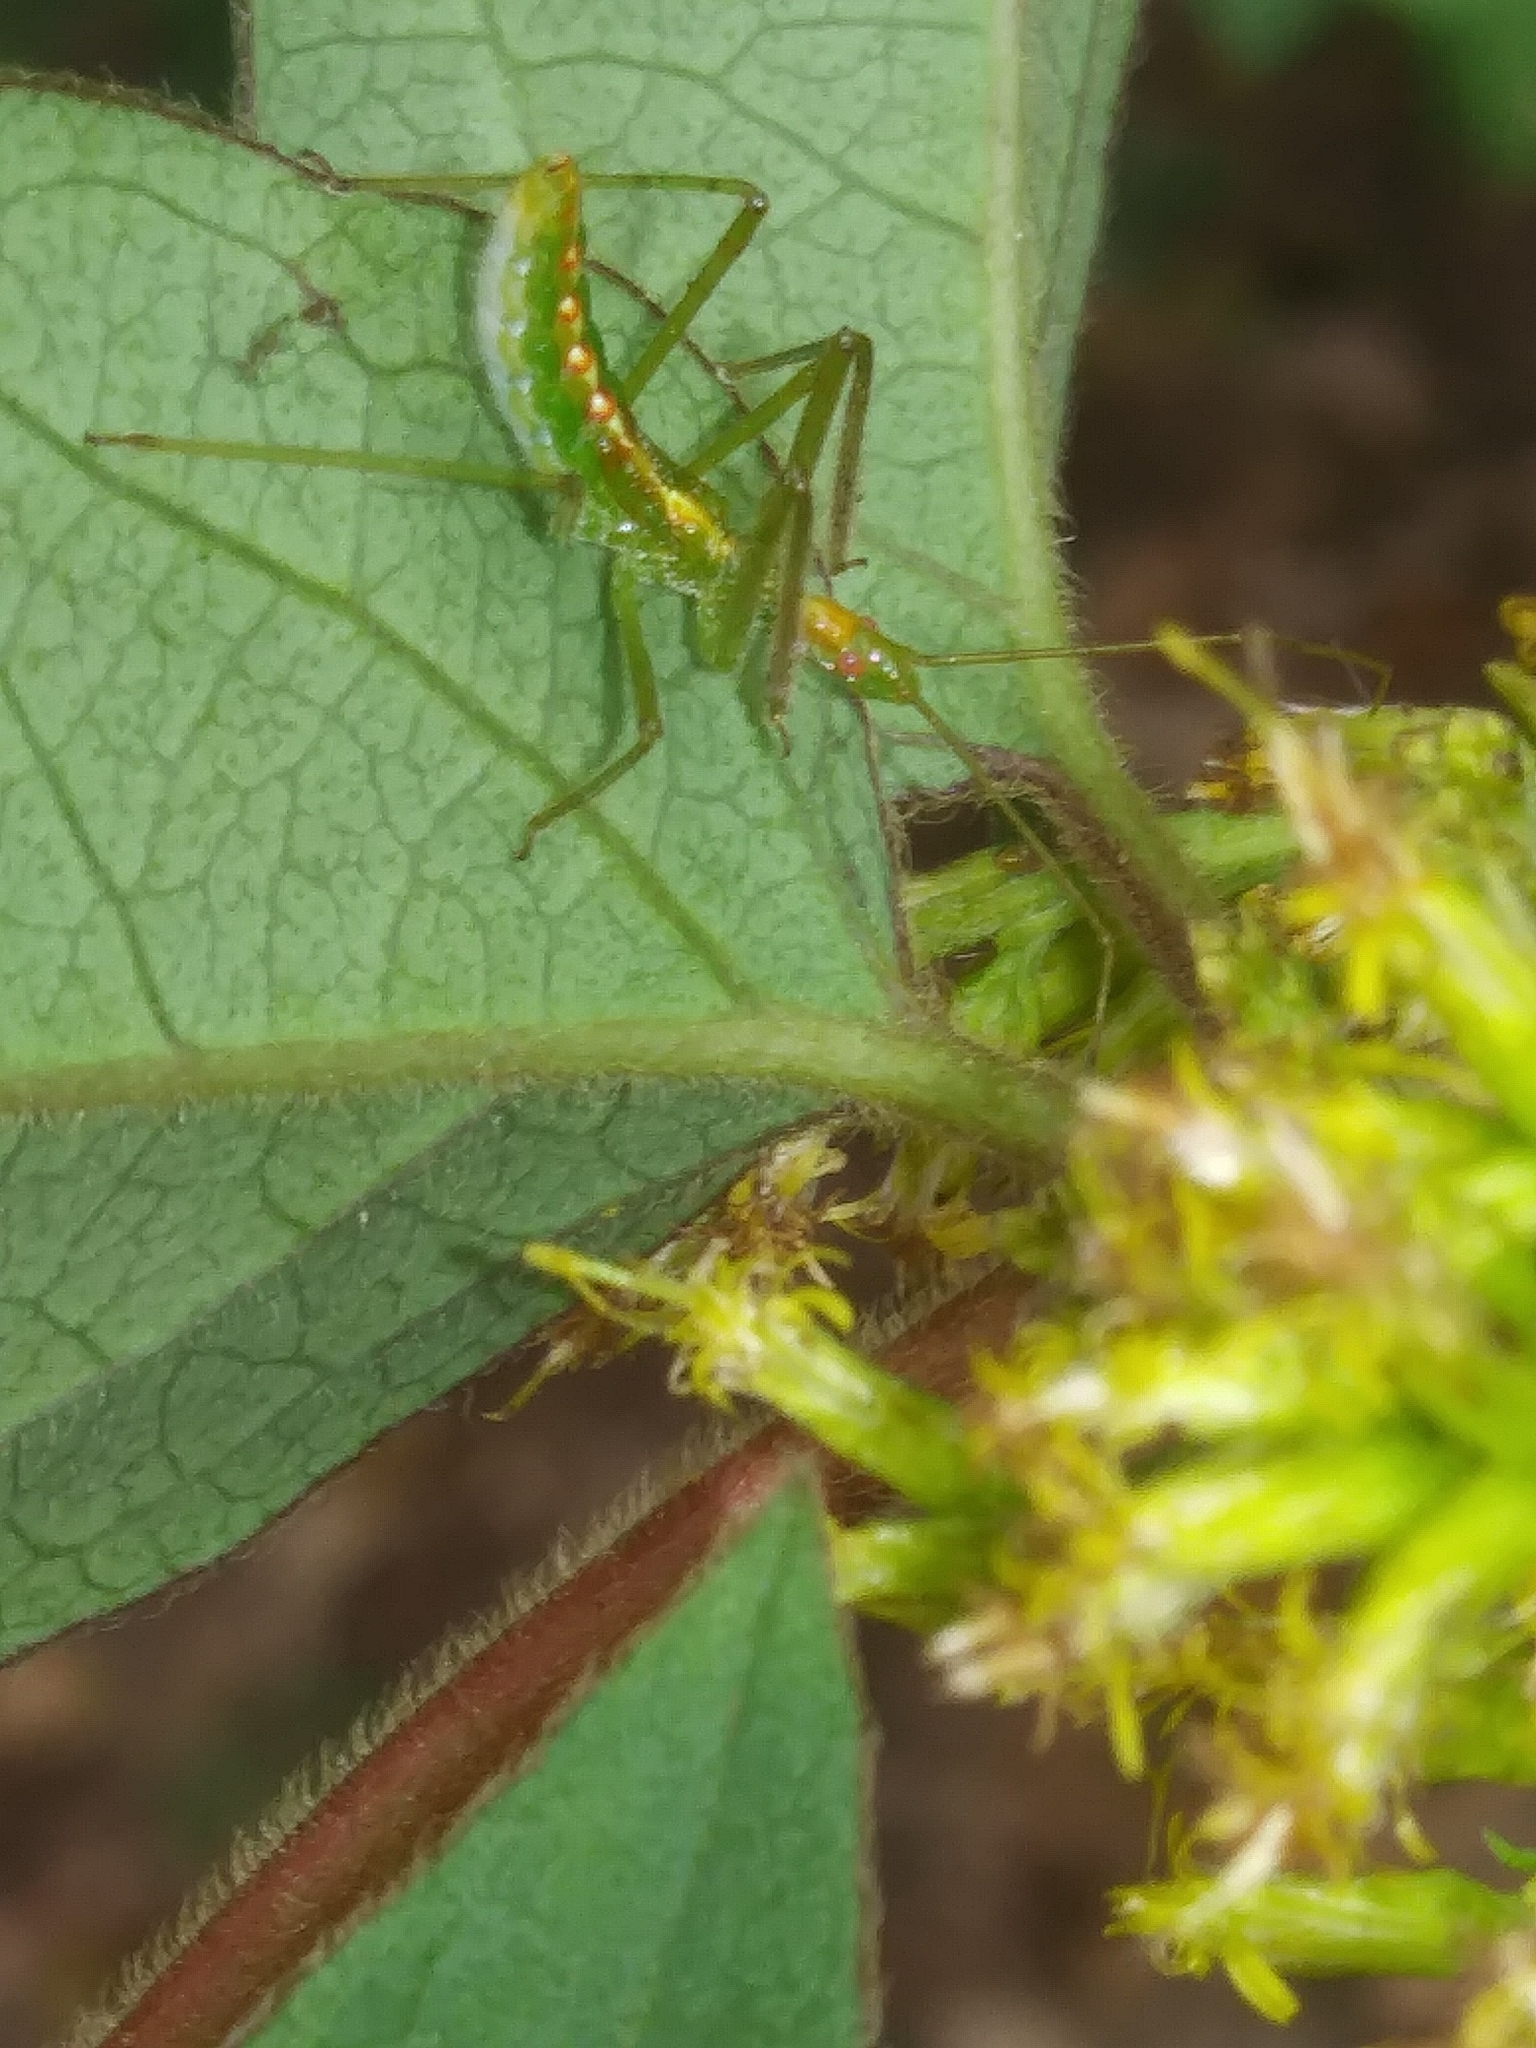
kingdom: Animalia
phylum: Arthropoda
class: Insecta
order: Hemiptera
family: Reduviidae
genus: Zelus
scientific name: Zelus luridus
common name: Pale green assassin bug
